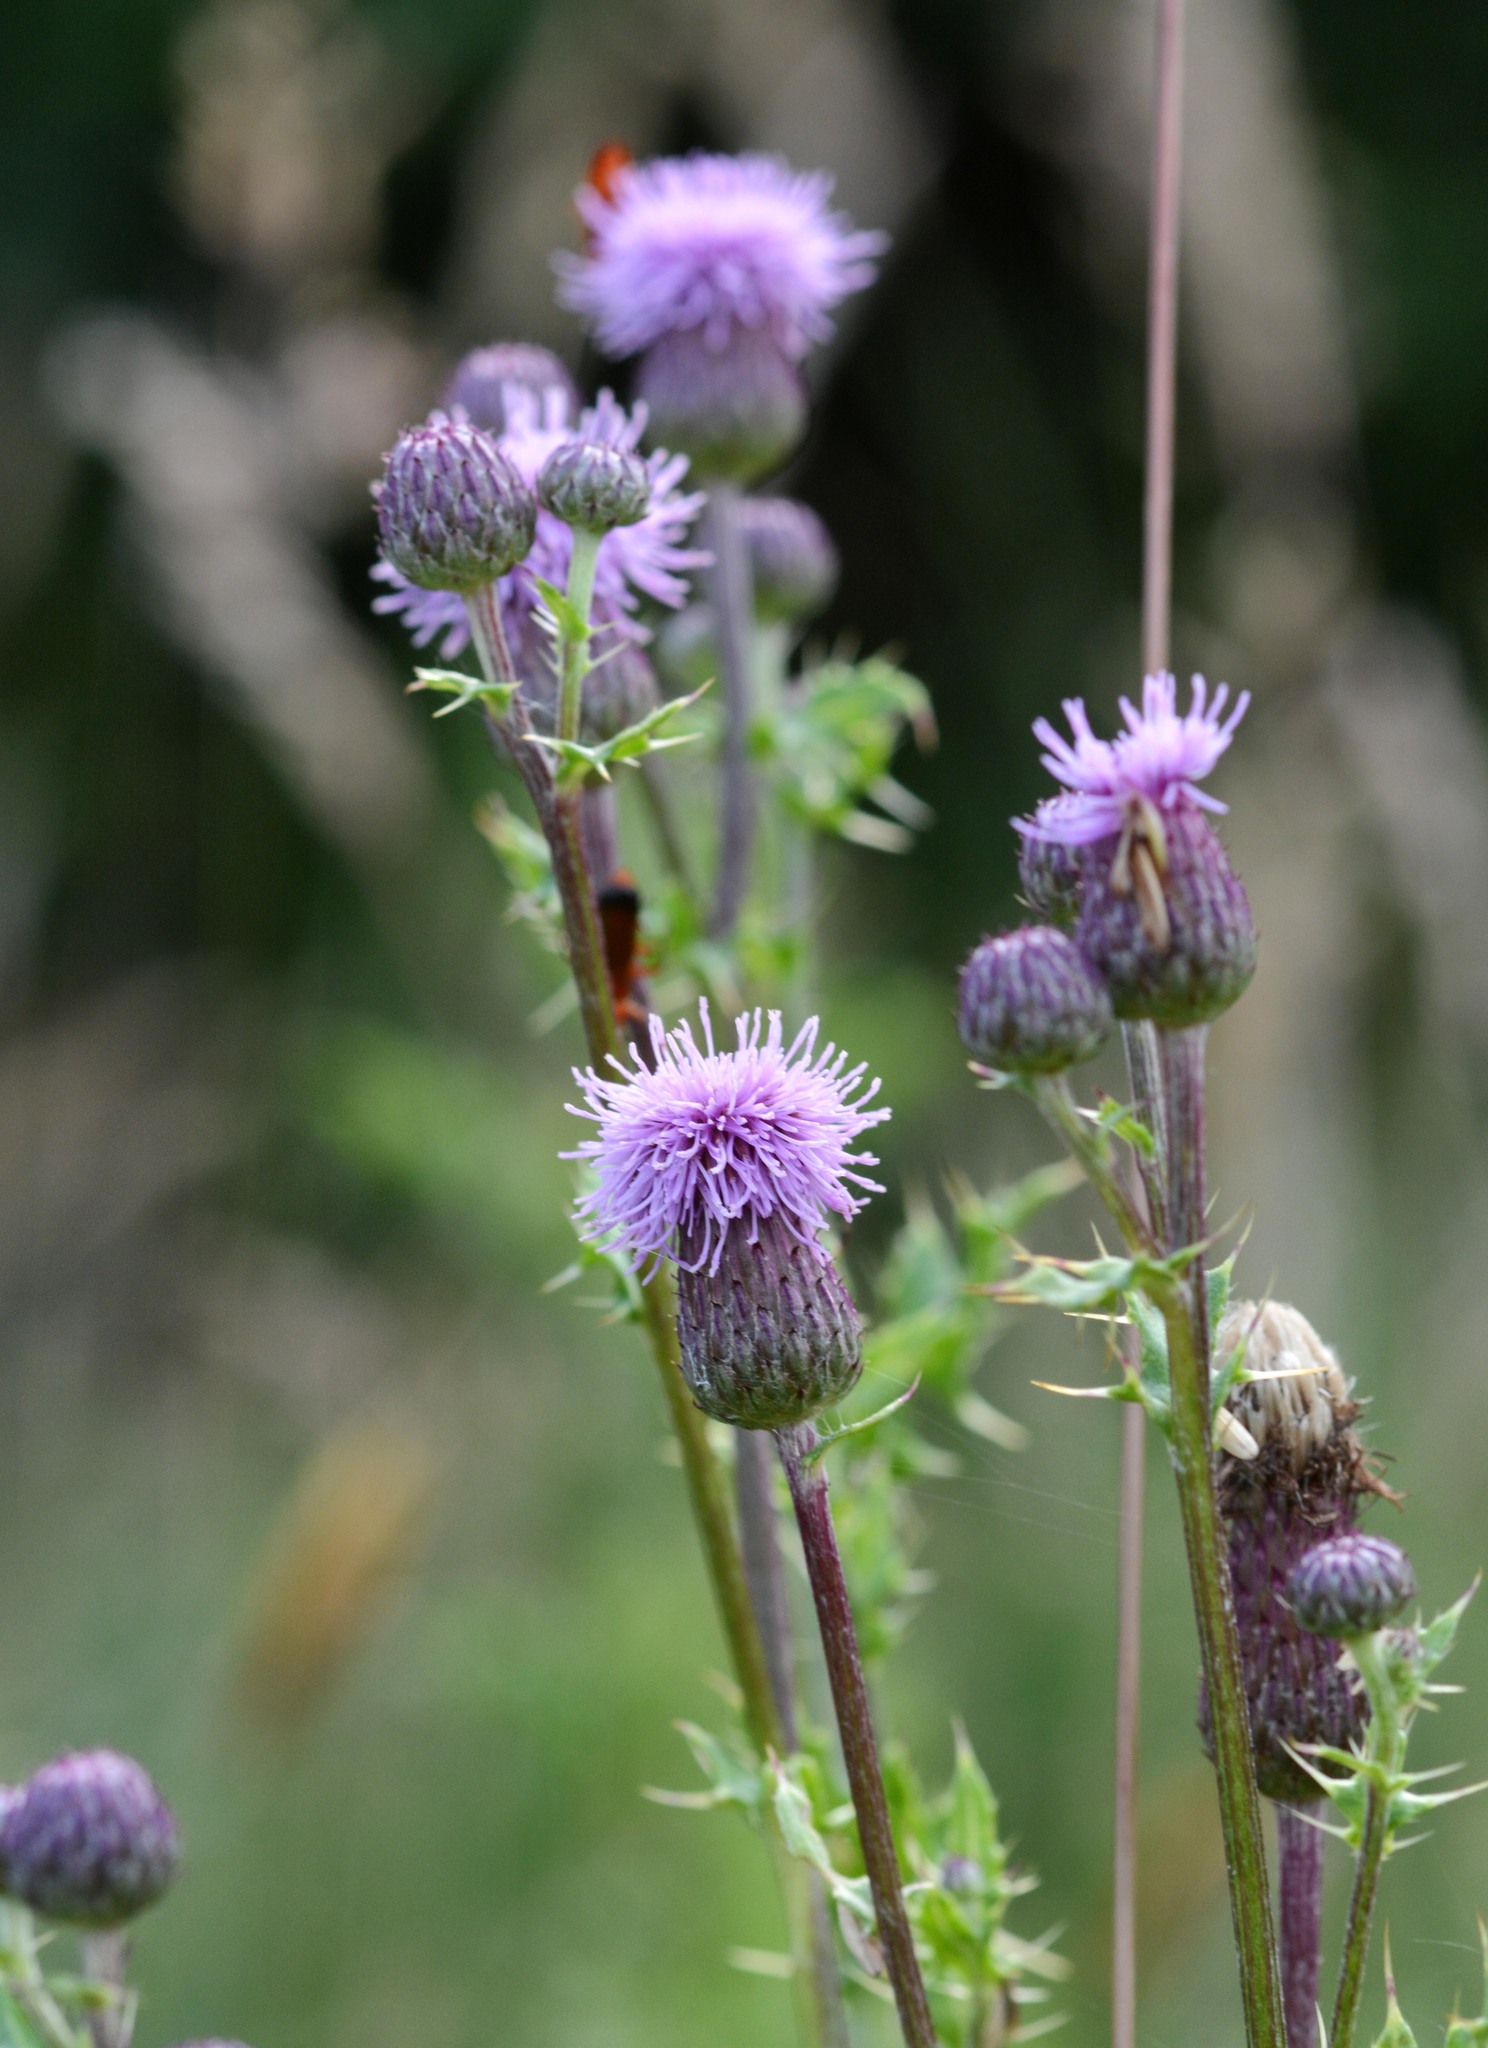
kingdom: Plantae
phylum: Tracheophyta
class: Magnoliopsida
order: Asterales
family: Asteraceae
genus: Cirsium
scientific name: Cirsium arvense
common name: Creeping thistle
